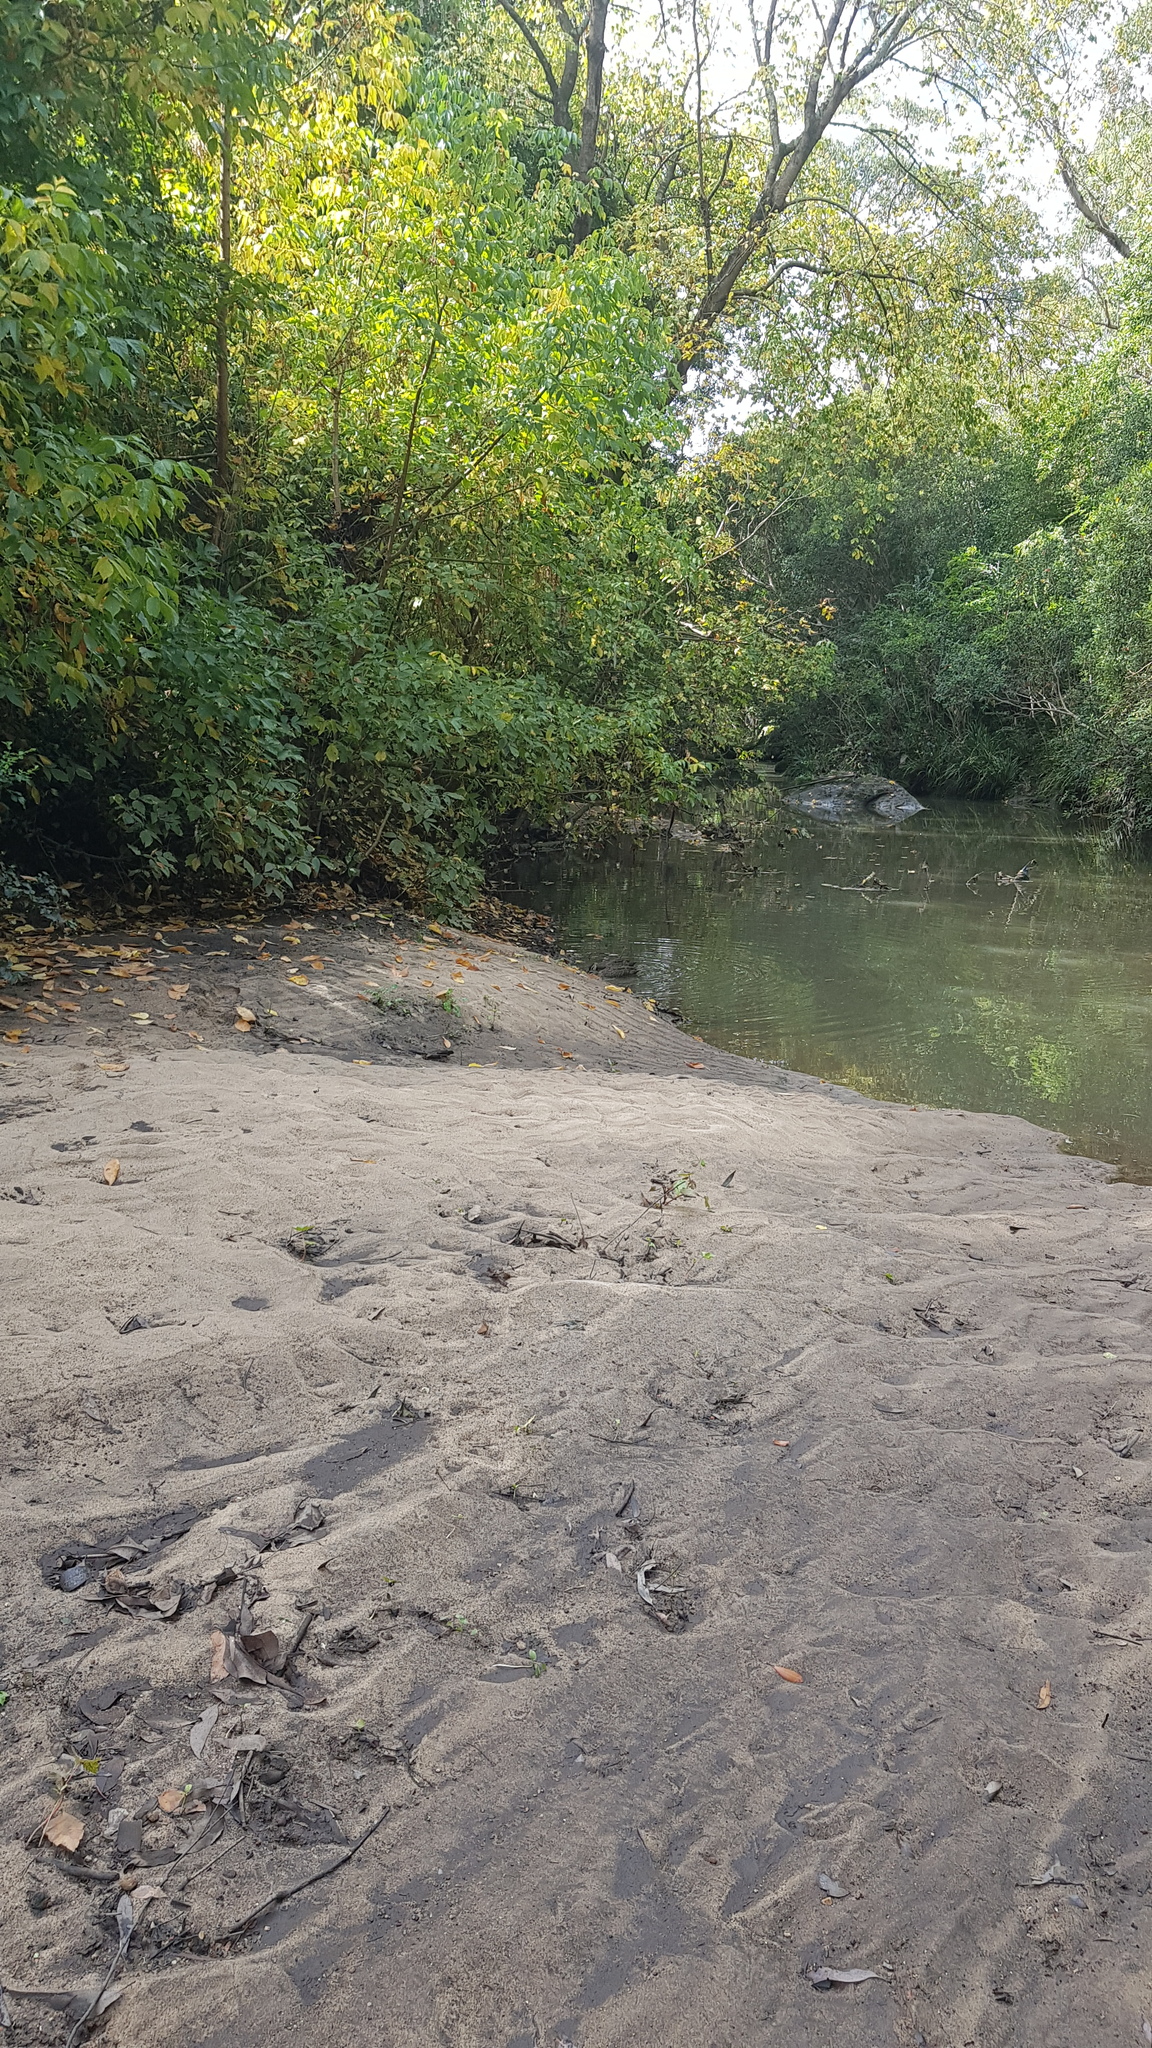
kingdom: Animalia
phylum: Chordata
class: Aves
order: Anseriformes
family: Anatidae
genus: Anas
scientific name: Anas superciliosa
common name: Pacific black duck
